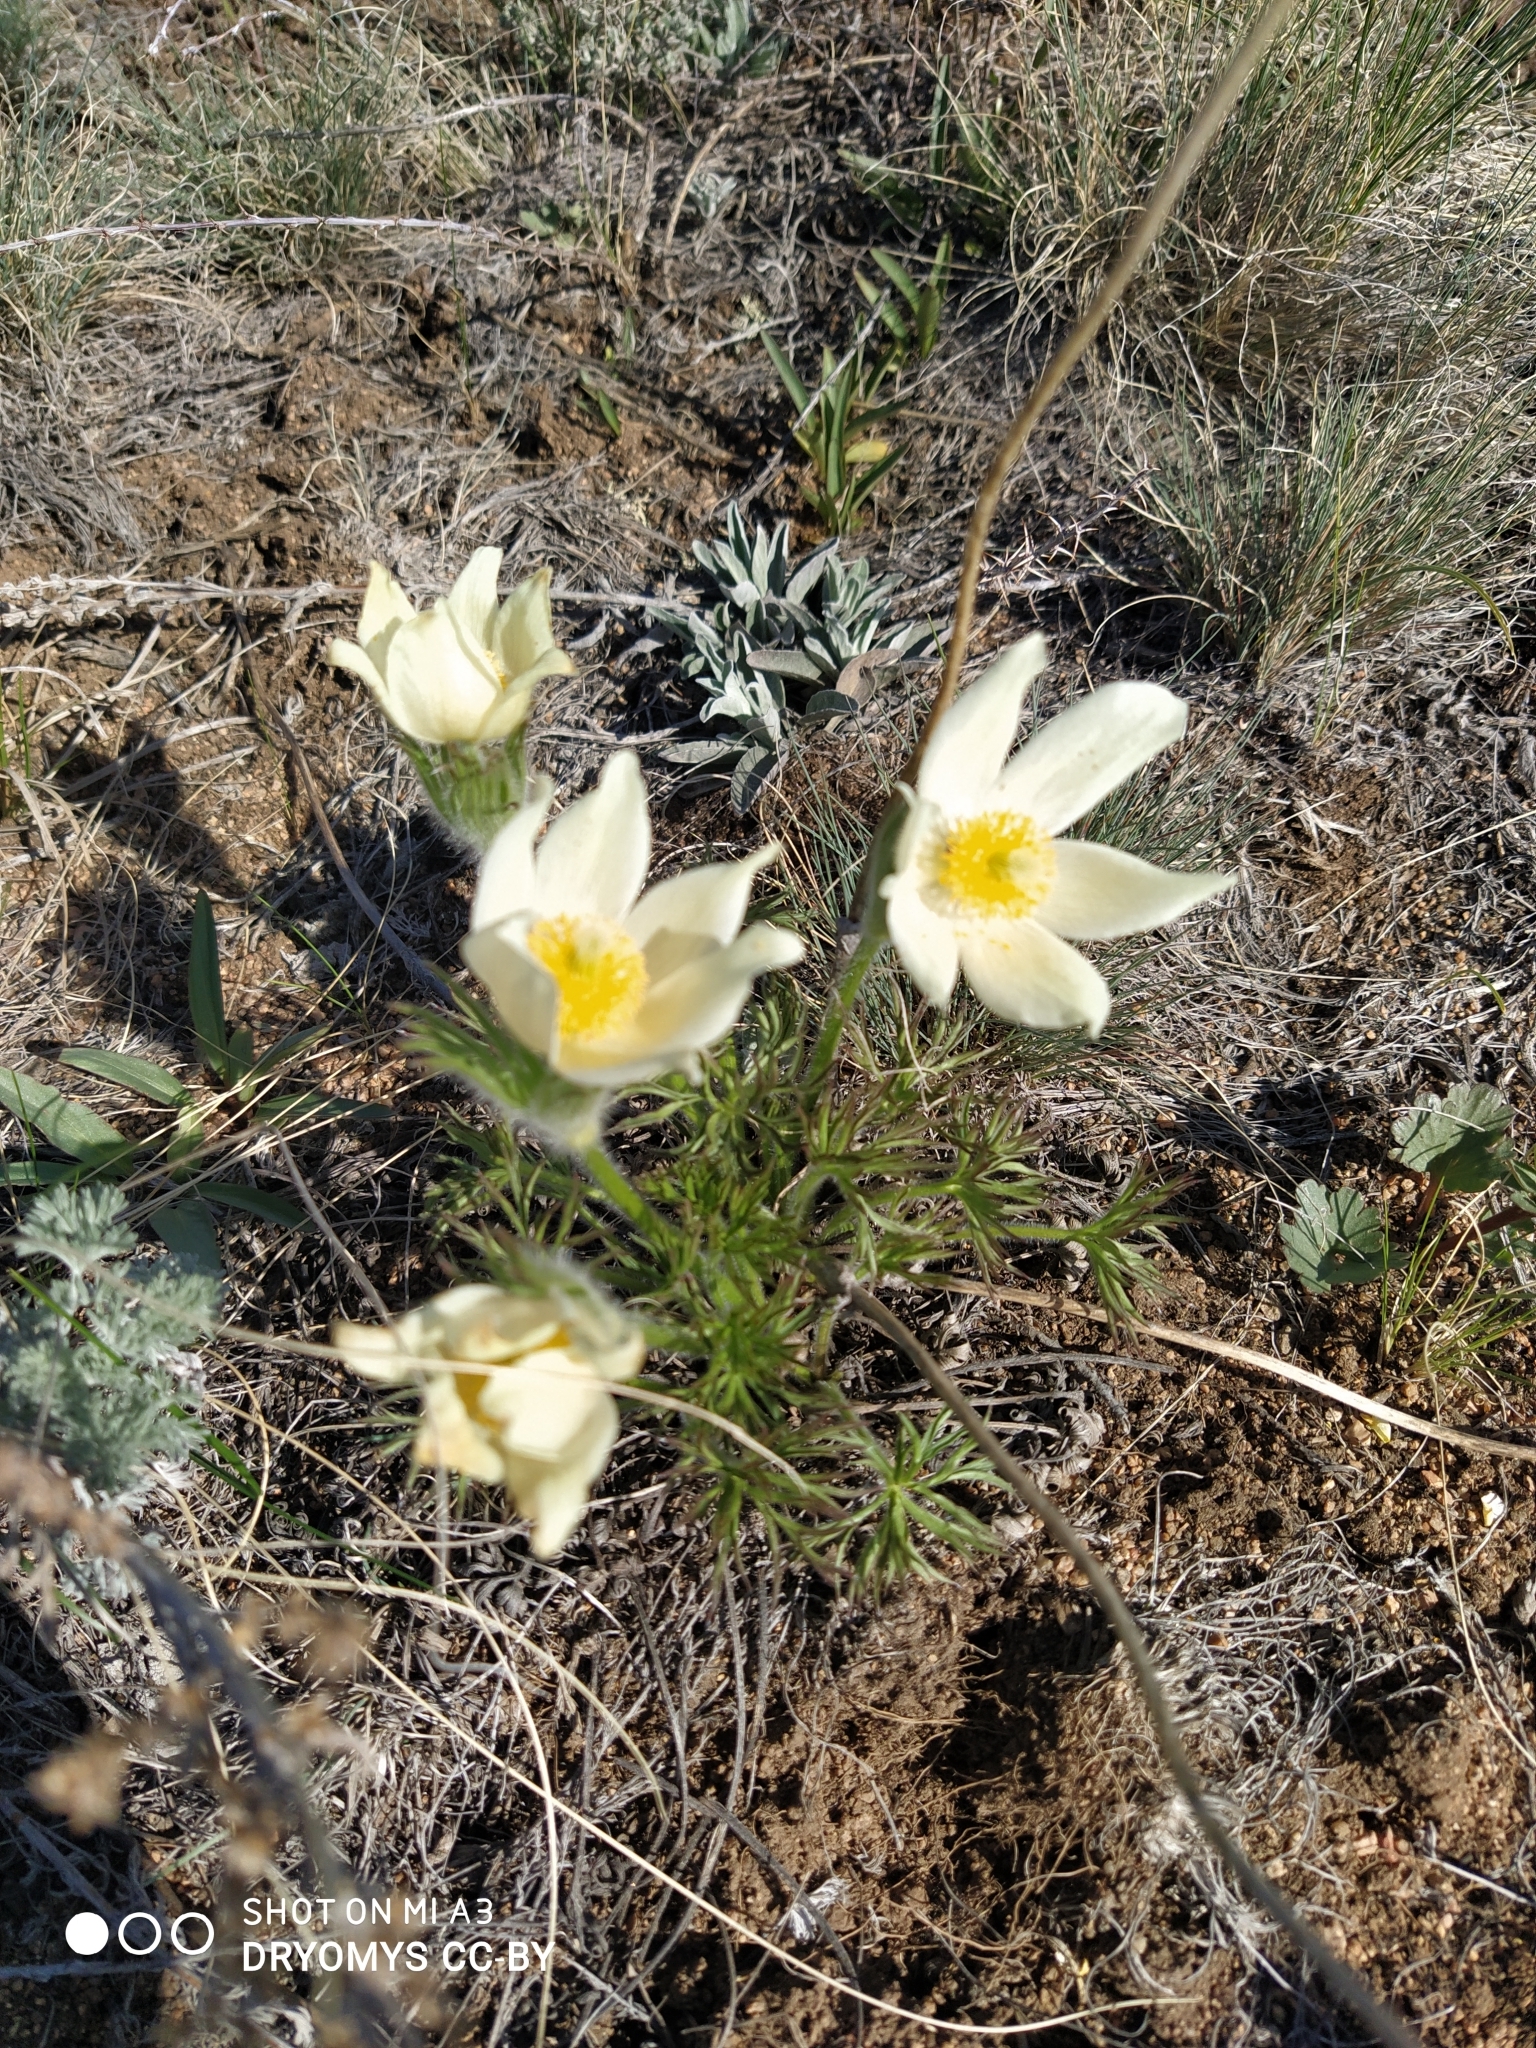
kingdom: Plantae
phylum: Tracheophyta
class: Magnoliopsida
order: Ranunculales
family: Ranunculaceae
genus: Pulsatilla
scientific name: Pulsatilla patens
